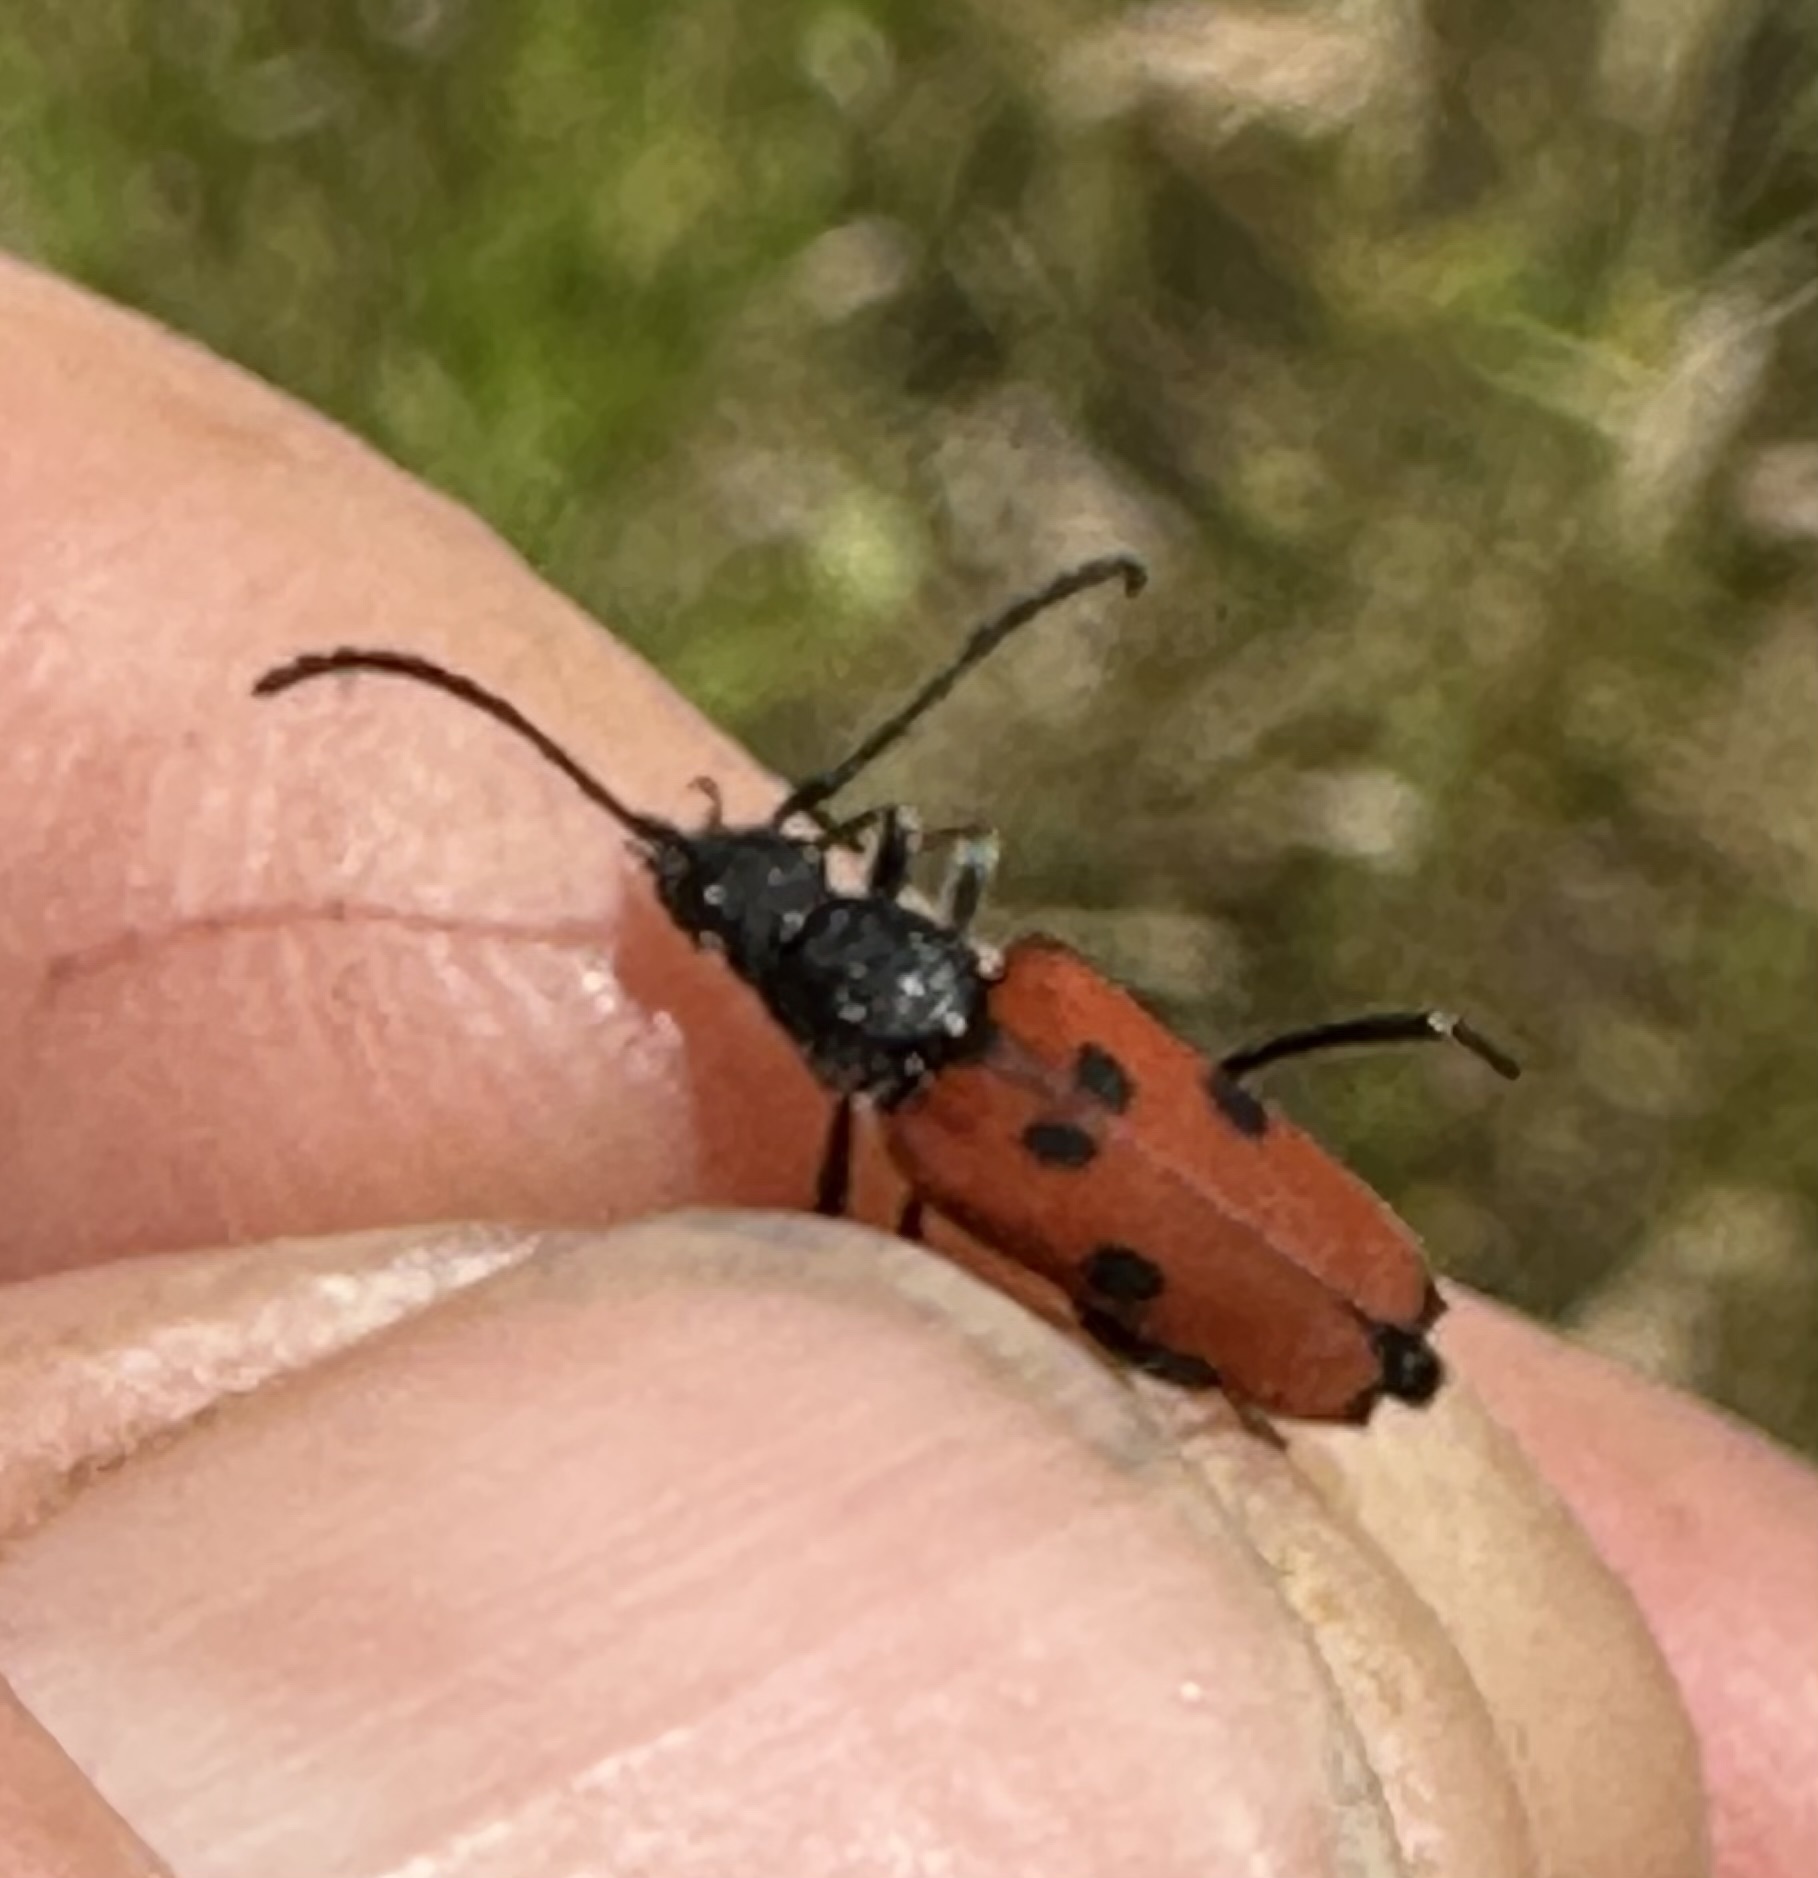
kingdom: Animalia
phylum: Arthropoda
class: Insecta
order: Coleoptera
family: Cerambycidae
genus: Anastrangalia
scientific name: Anastrangalia laetifica
